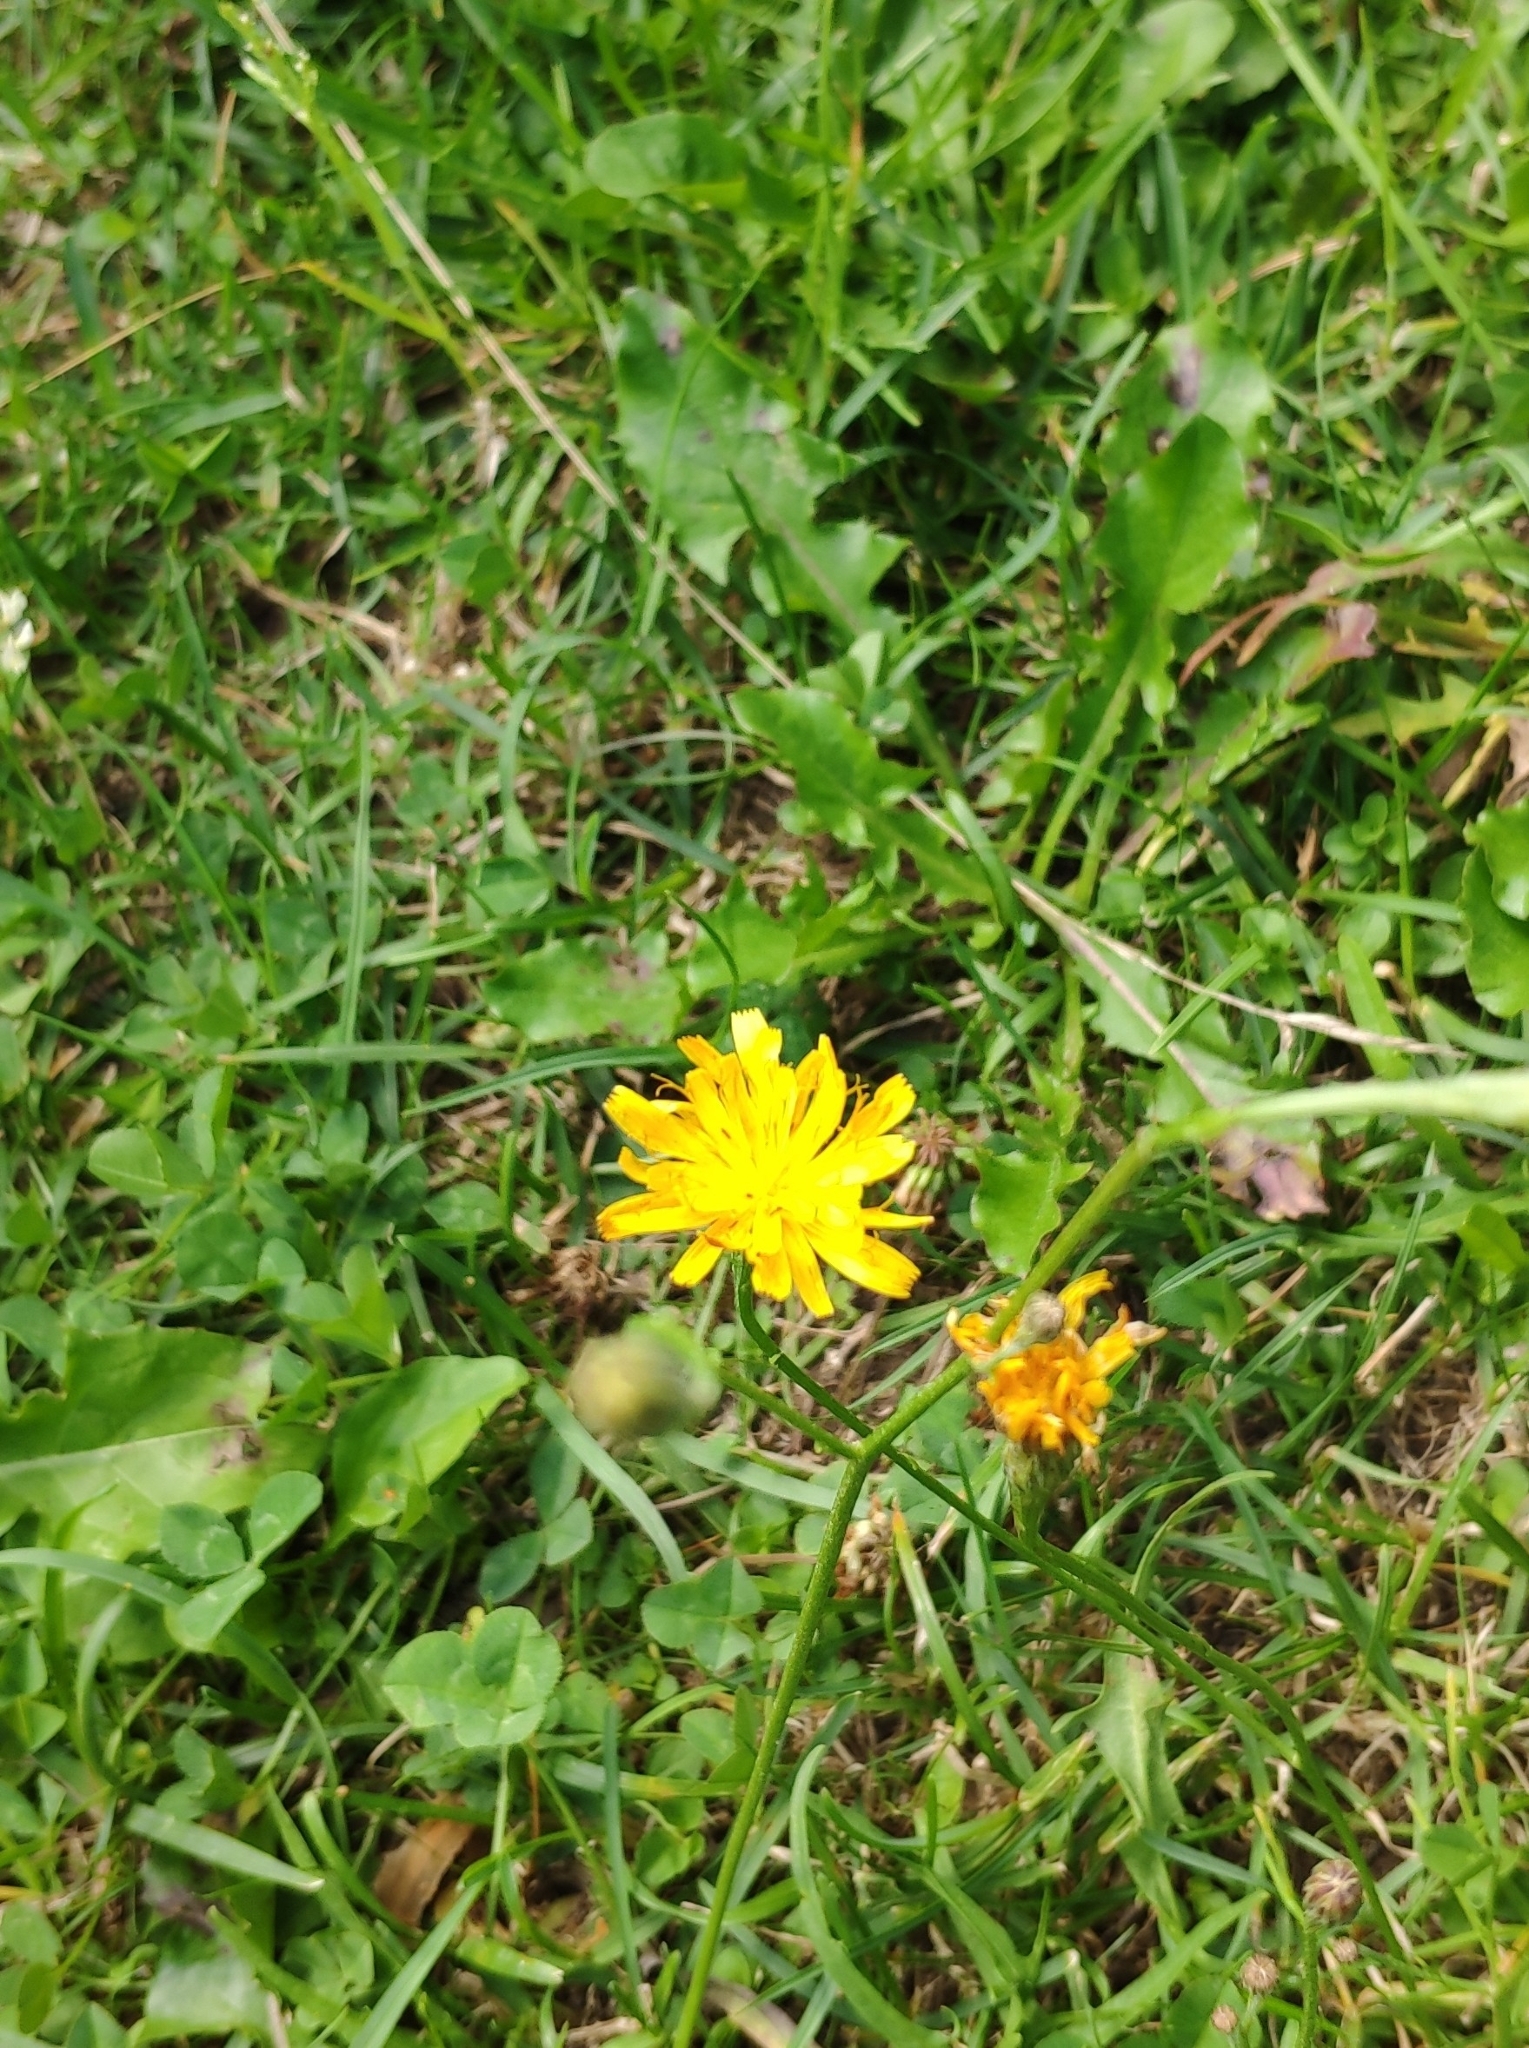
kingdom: Plantae
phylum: Tracheophyta
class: Magnoliopsida
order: Asterales
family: Asteraceae
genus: Scorzoneroides
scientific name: Scorzoneroides autumnalis
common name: Autumn hawkbit
